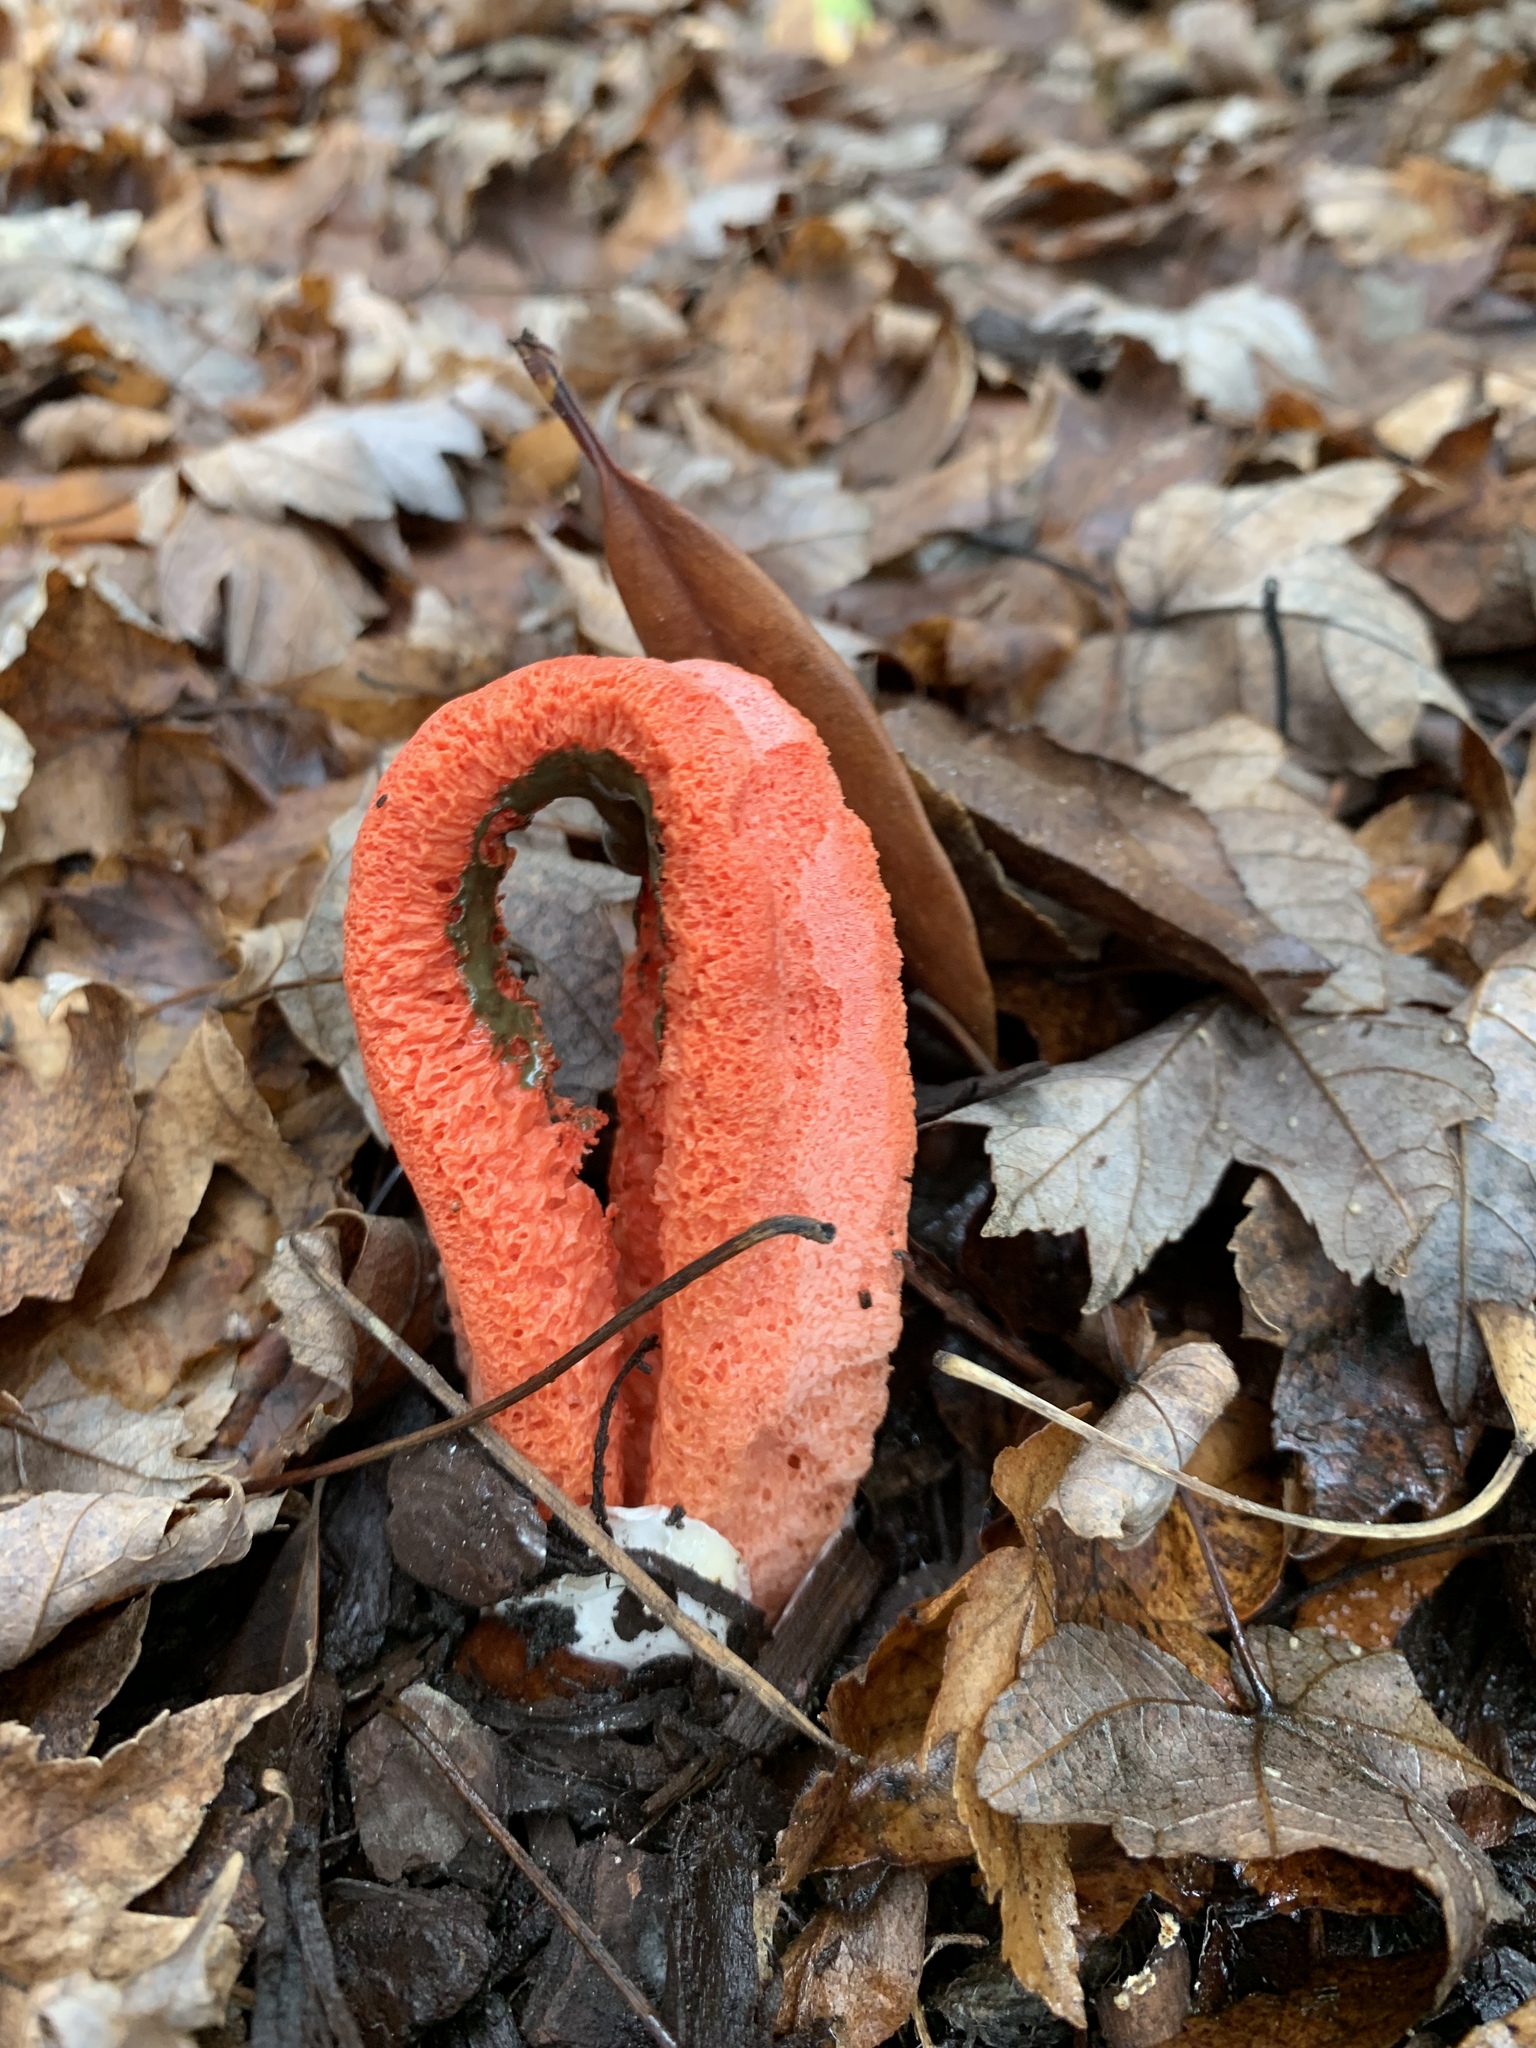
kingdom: Fungi
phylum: Basidiomycota
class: Agaricomycetes
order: Phallales
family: Phallaceae
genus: Clathrus
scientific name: Clathrus columnatus
